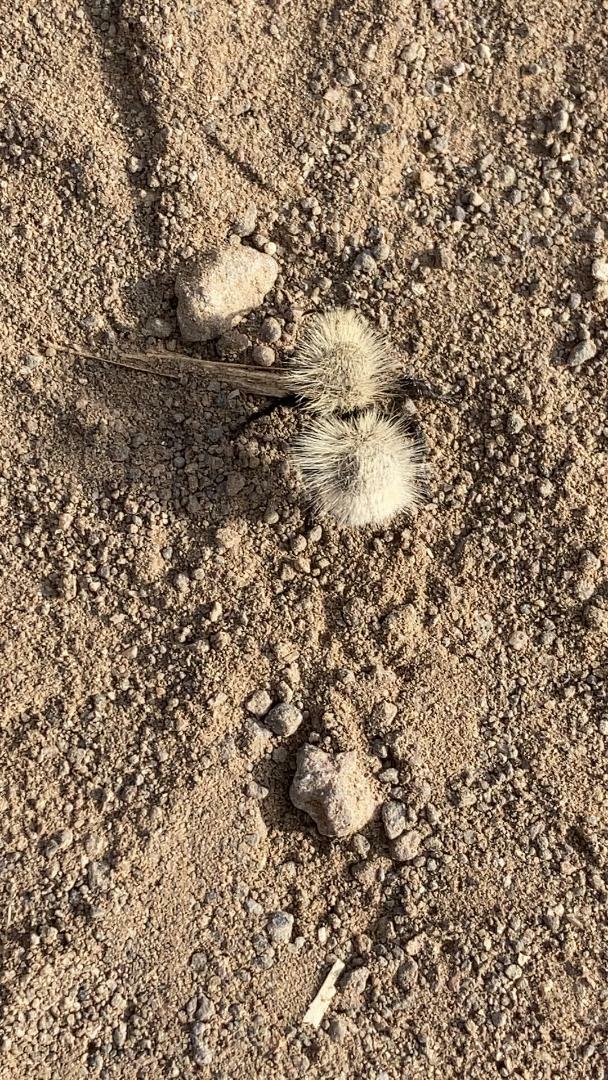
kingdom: Animalia
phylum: Arthropoda
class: Insecta
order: Hymenoptera
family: Mutillidae
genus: Dasymutilla
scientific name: Dasymutilla
